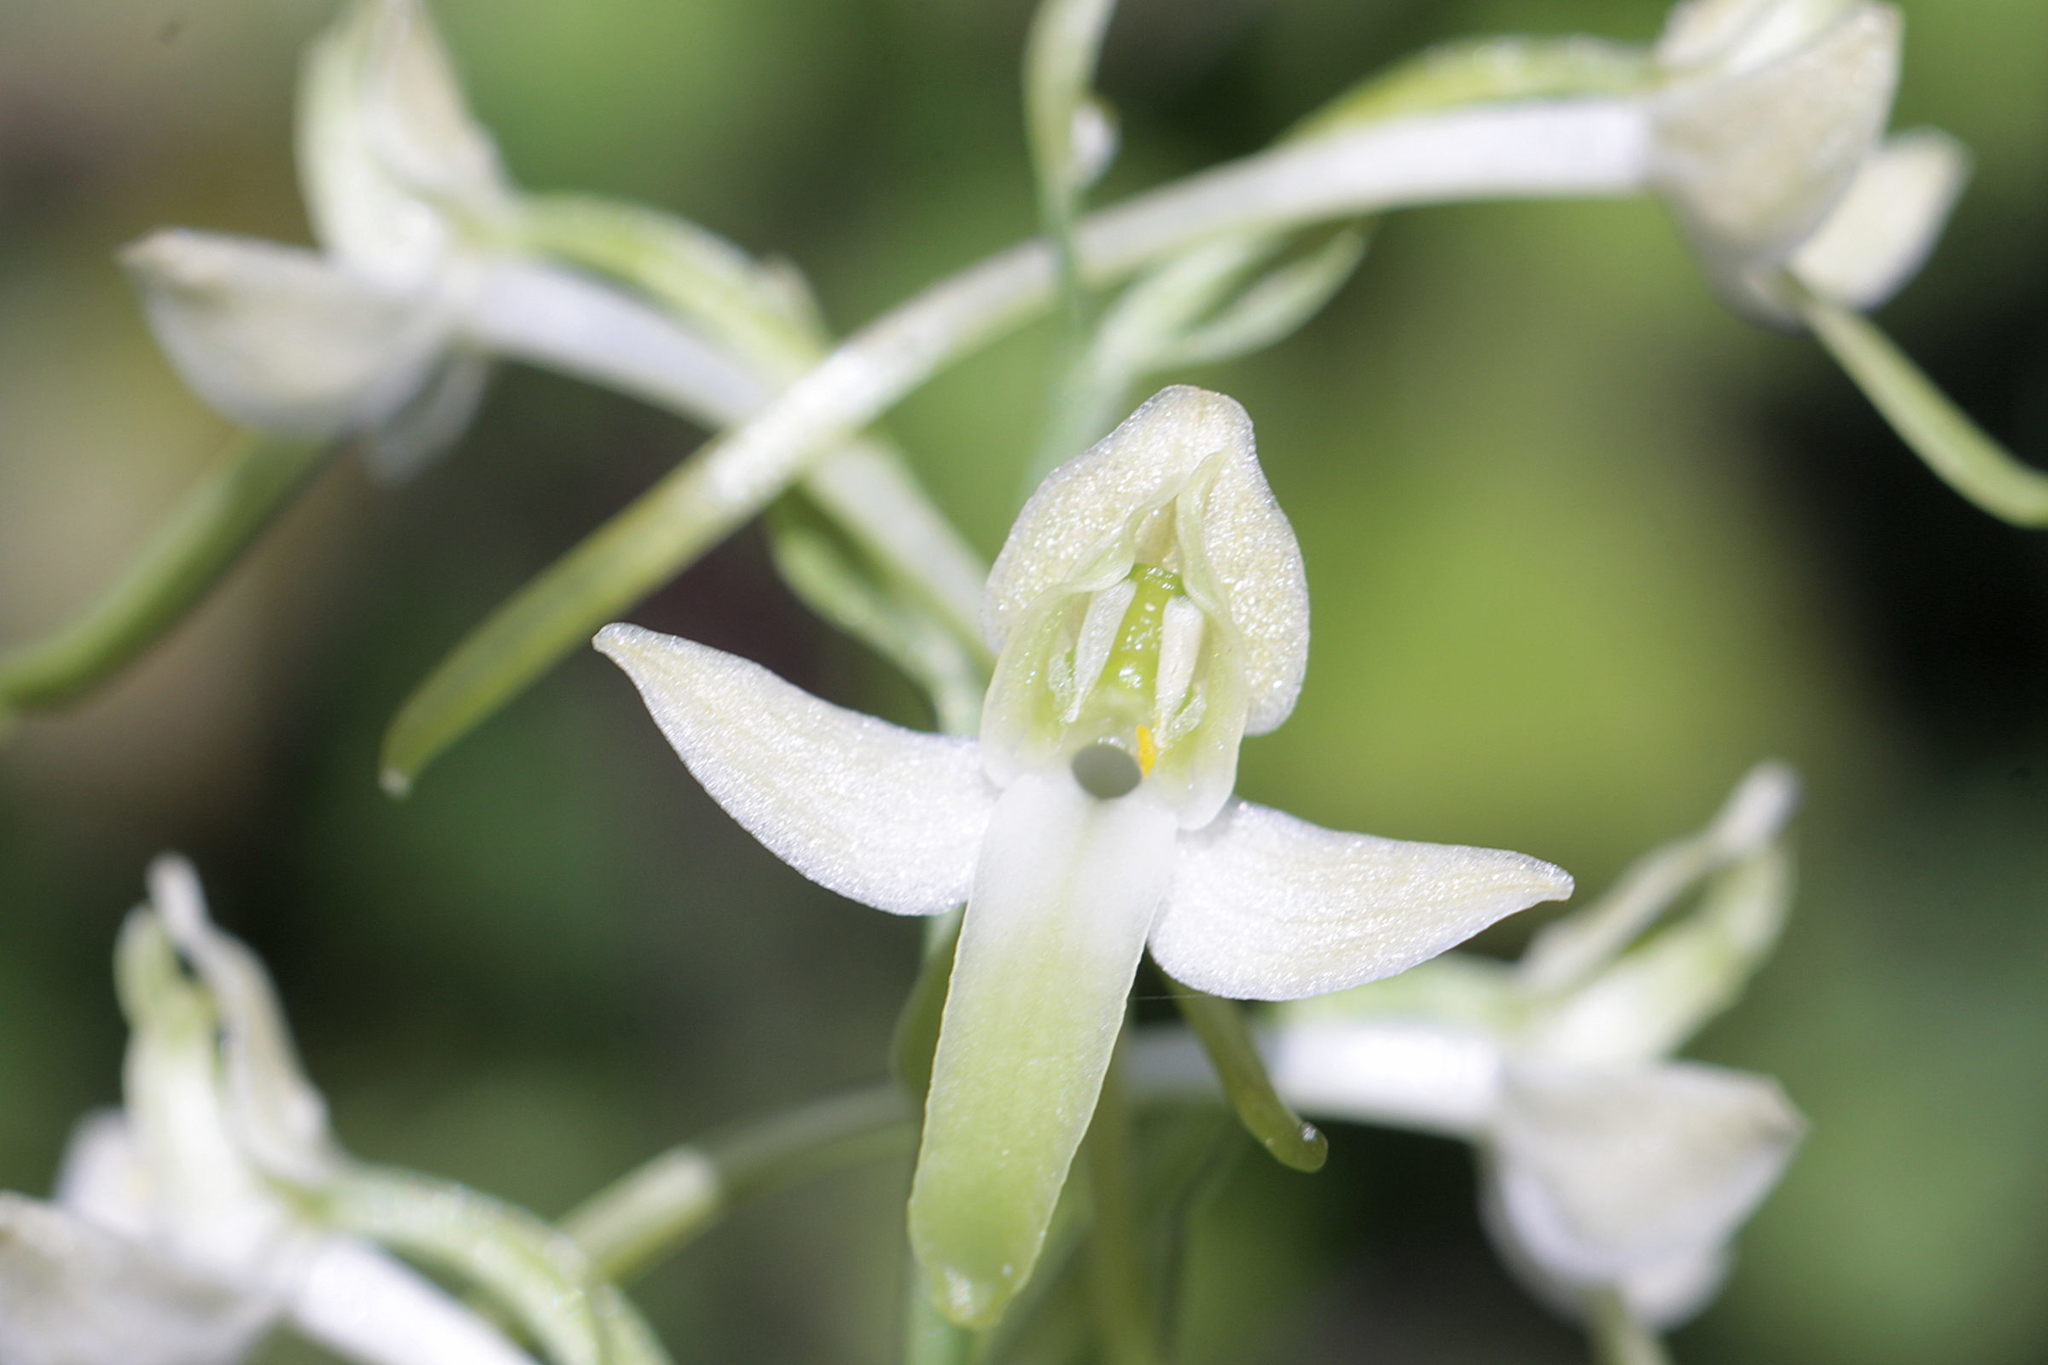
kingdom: Plantae
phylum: Tracheophyta
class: Liliopsida
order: Asparagales
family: Orchidaceae
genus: Platanthera
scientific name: Platanthera bifolia
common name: Lesser butterfly-orchid
